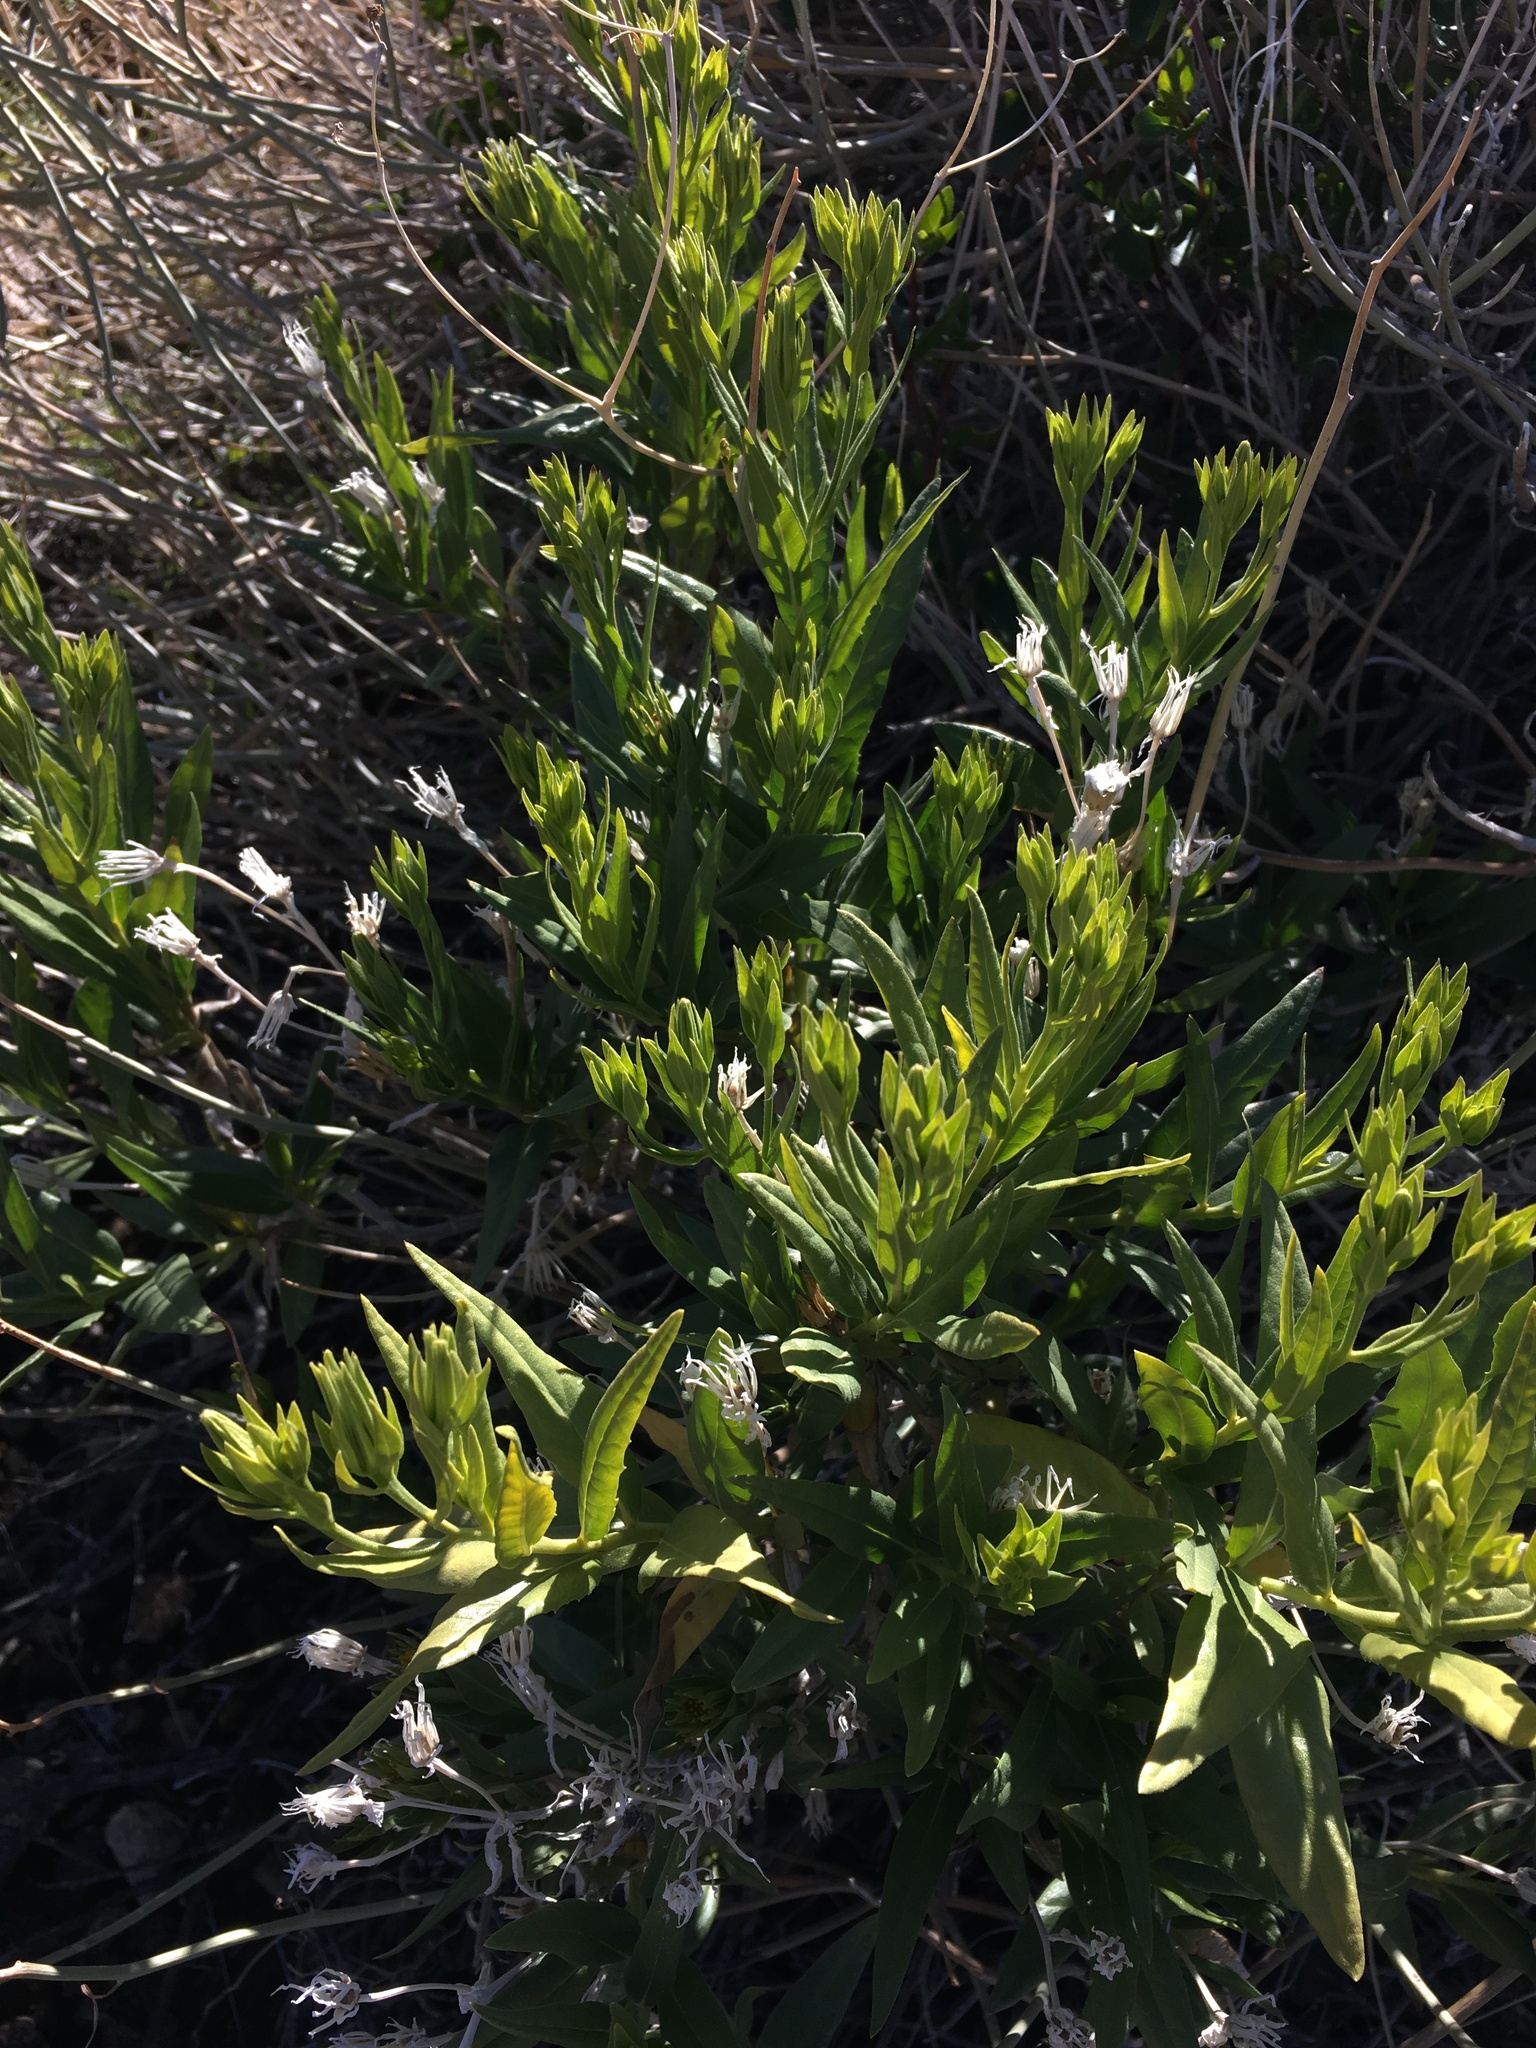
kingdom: Plantae
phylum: Tracheophyta
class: Magnoliopsida
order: Asterales
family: Asteraceae
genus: Trixis
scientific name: Trixis californica
